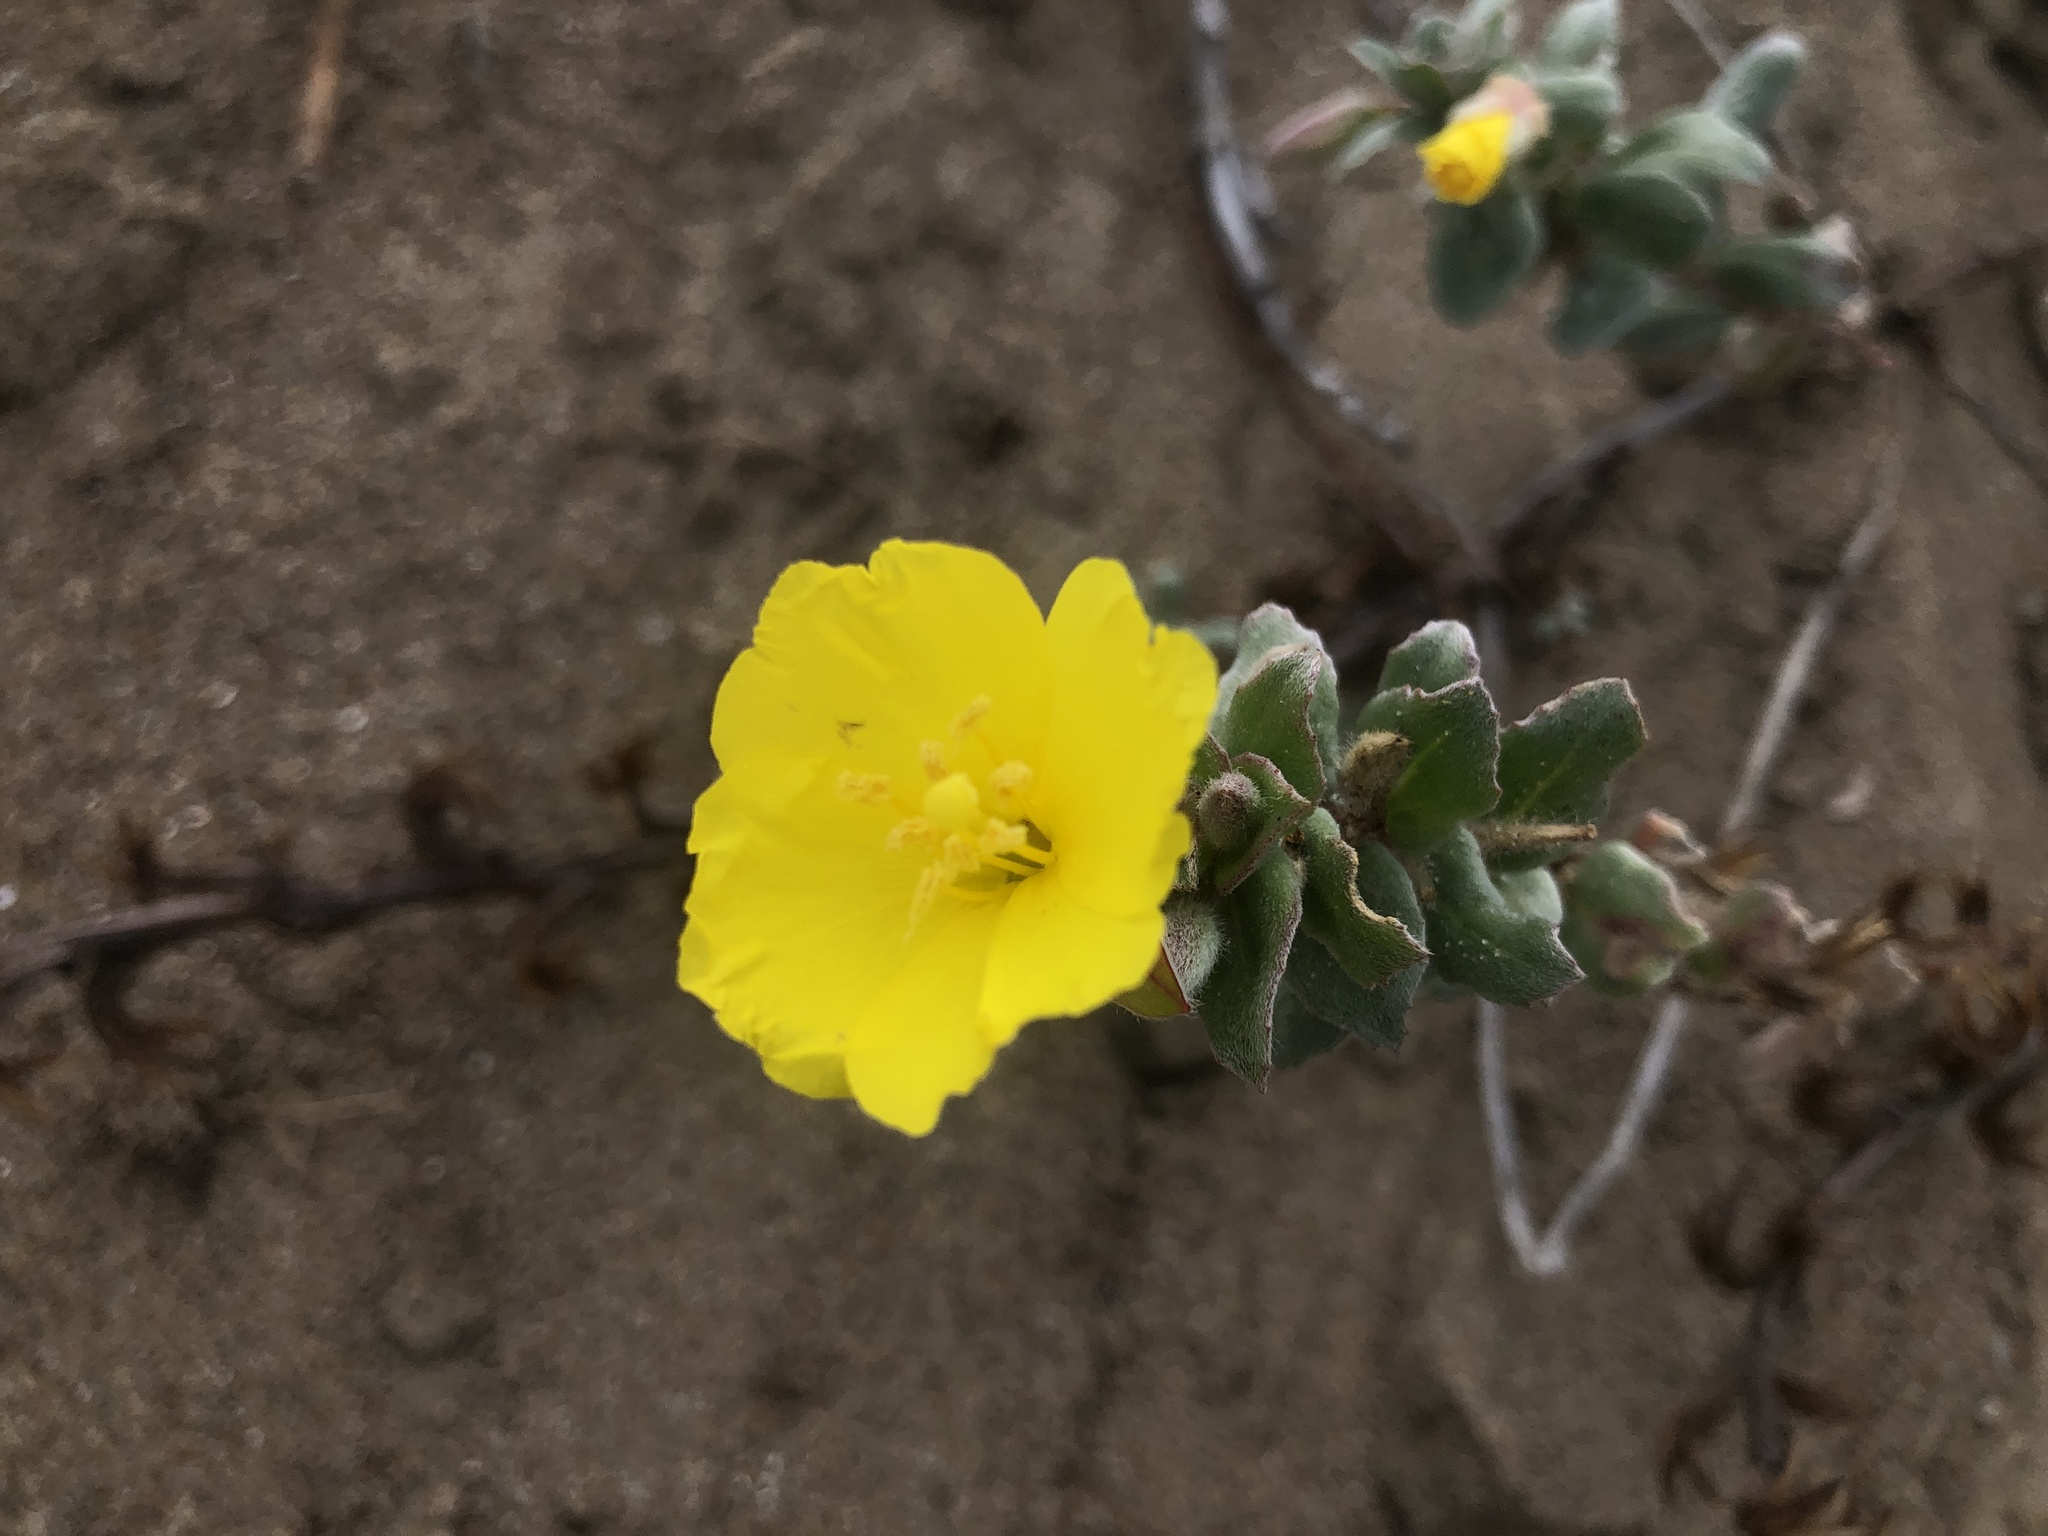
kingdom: Plantae
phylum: Tracheophyta
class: Magnoliopsida
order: Myrtales
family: Onagraceae
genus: Camissoniopsis
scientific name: Camissoniopsis cheiranthifolia
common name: Beach suncup
